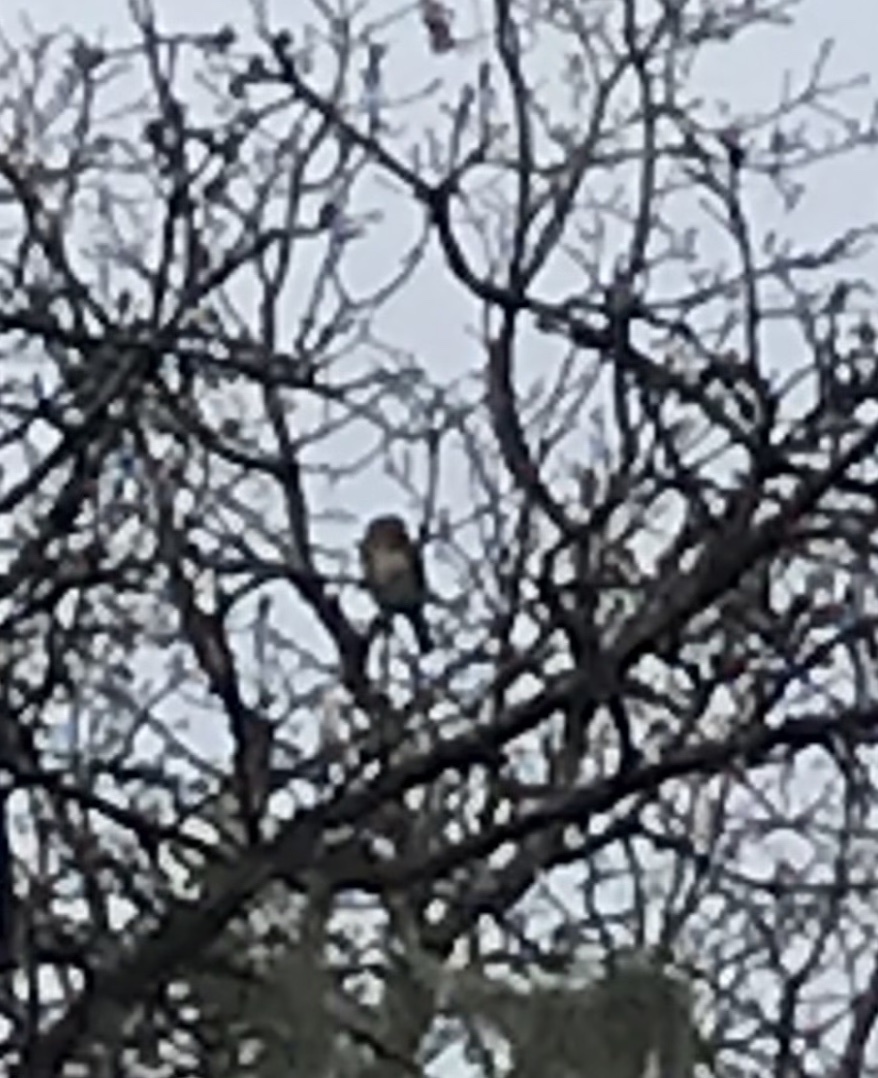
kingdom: Animalia
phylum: Chordata
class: Aves
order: Strigiformes
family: Strigidae
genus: Glaucidium
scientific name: Glaucidium gnoma
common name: Northern pygmy-owl
